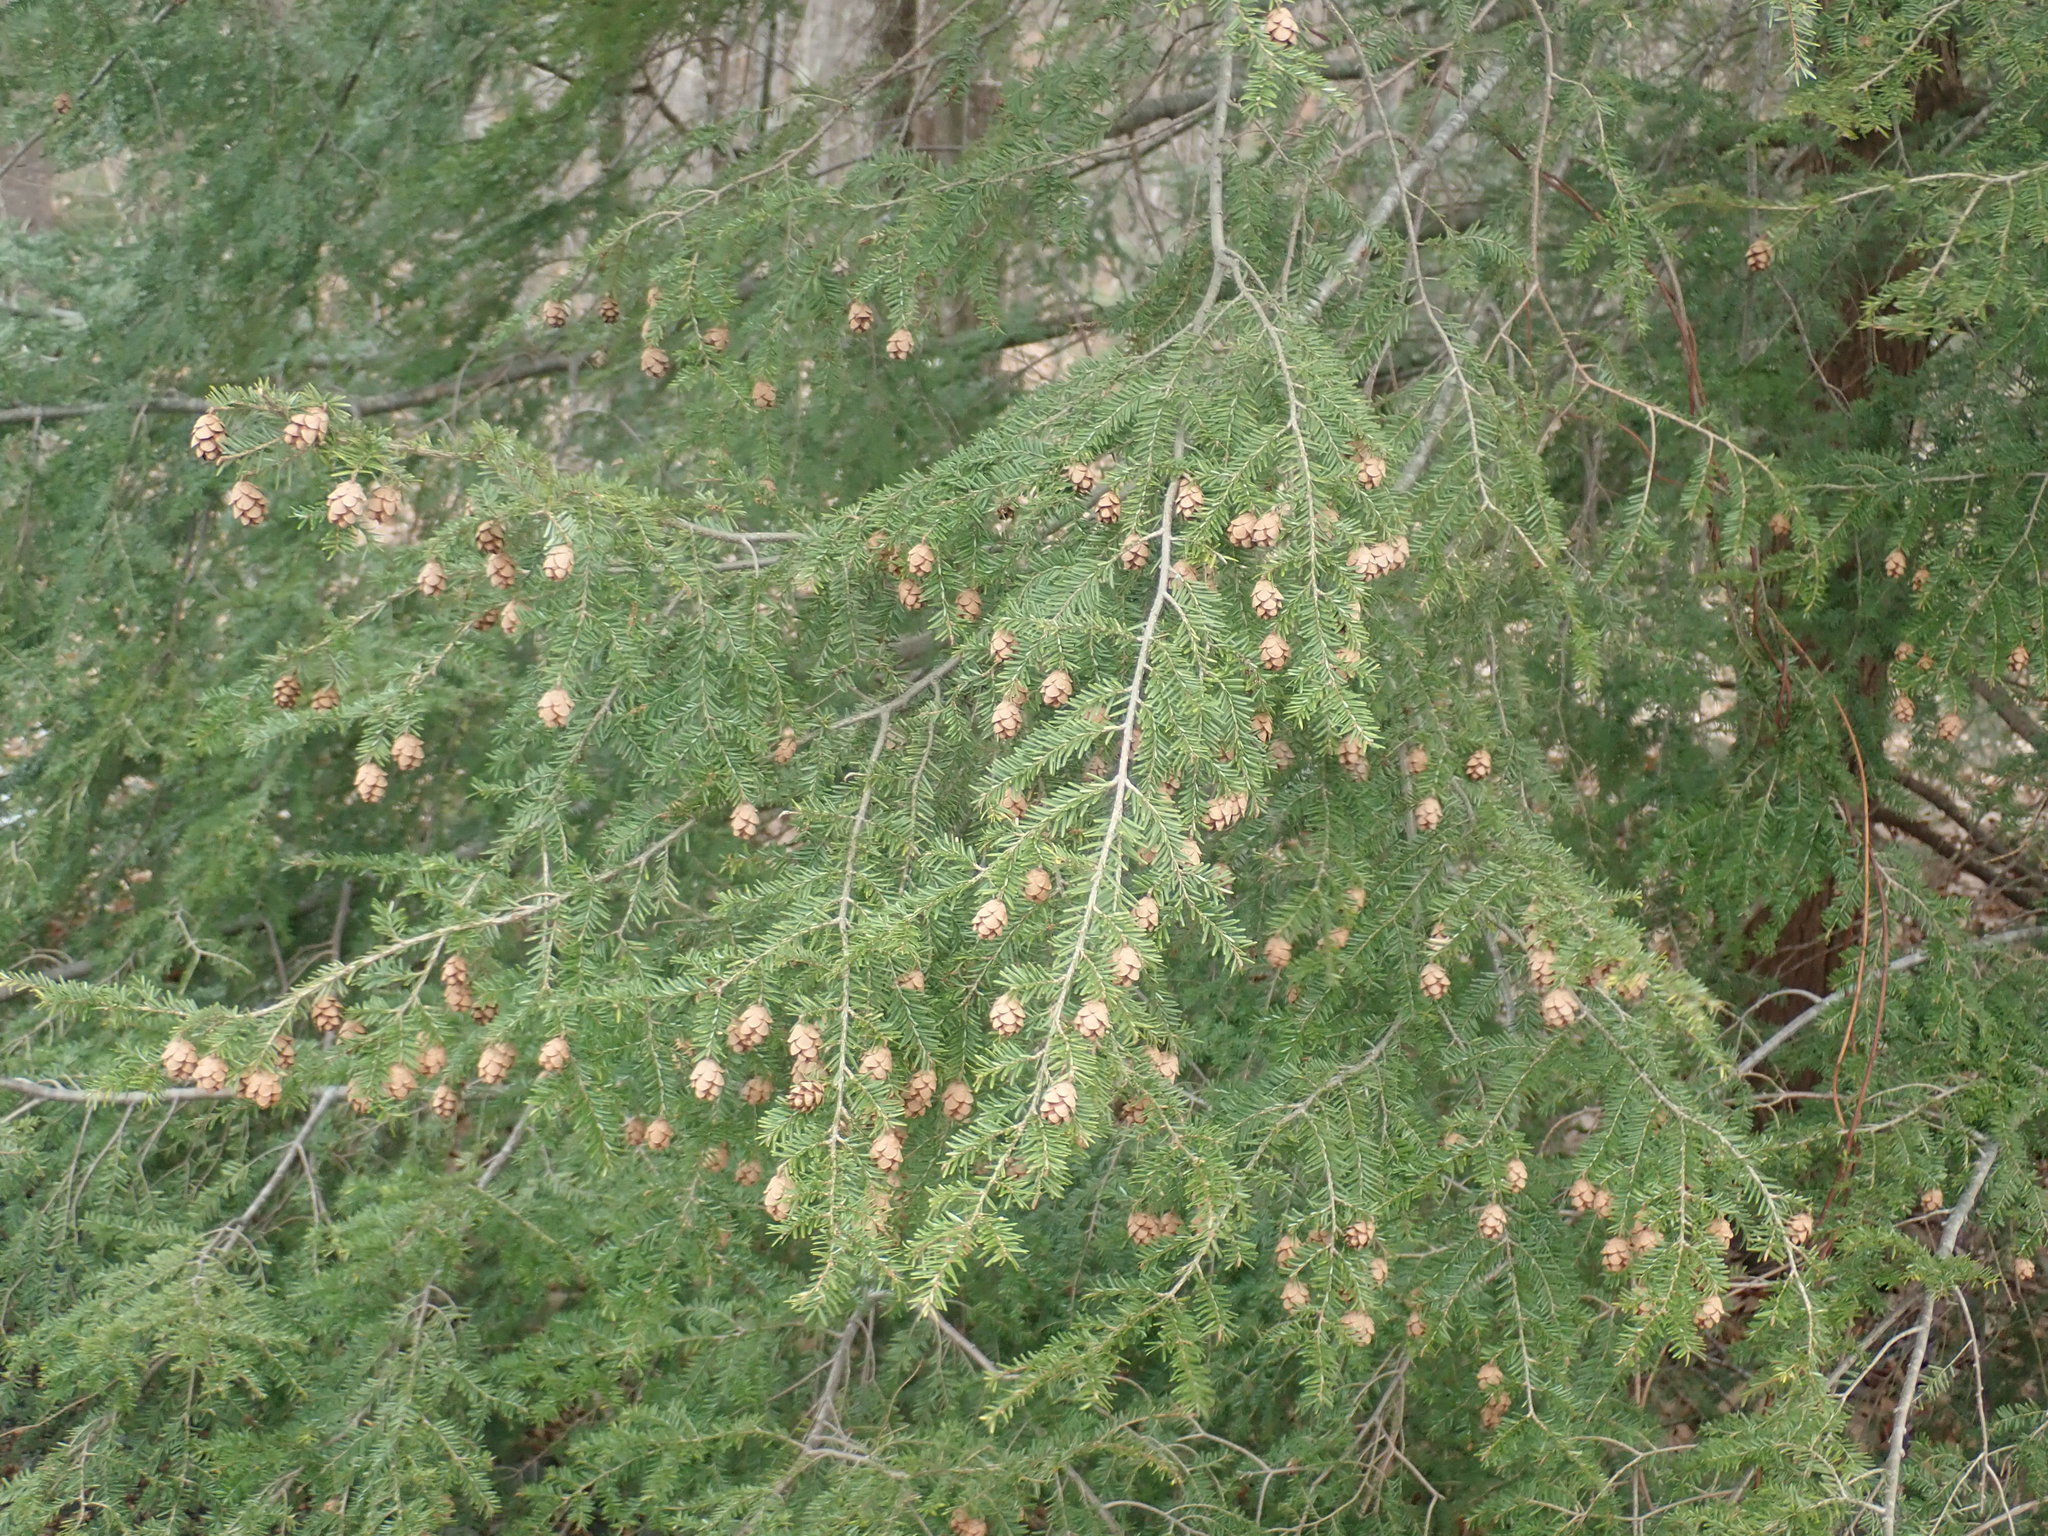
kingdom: Plantae
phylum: Tracheophyta
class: Pinopsida
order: Pinales
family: Pinaceae
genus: Tsuga
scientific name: Tsuga canadensis
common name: Eastern hemlock
